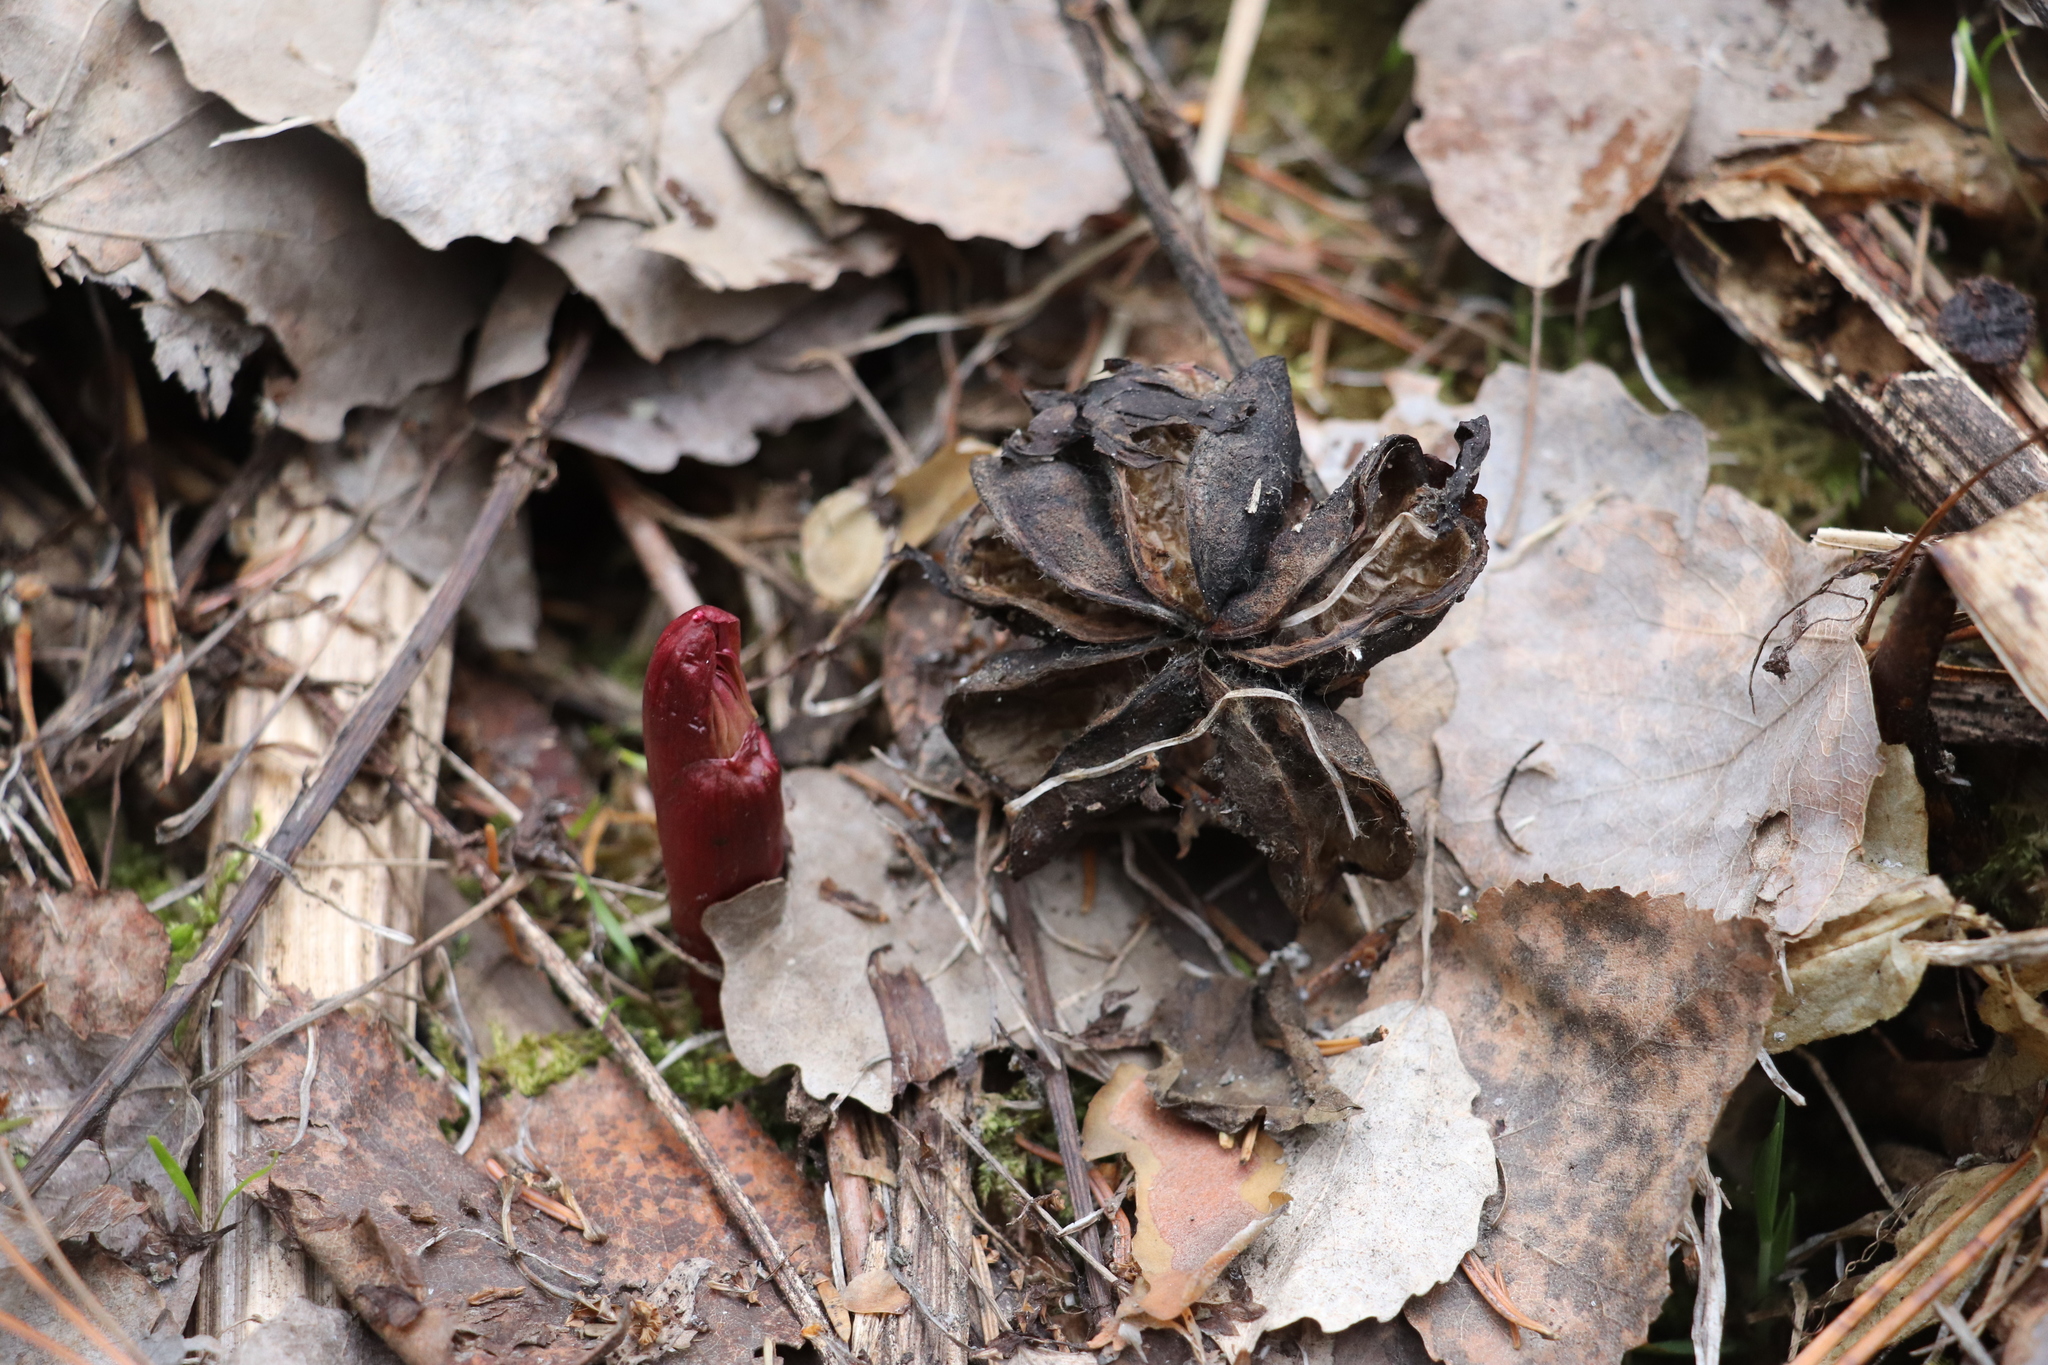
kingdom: Plantae
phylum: Tracheophyta
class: Magnoliopsida
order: Saxifragales
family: Paeoniaceae
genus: Paeonia
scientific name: Paeonia anomala
